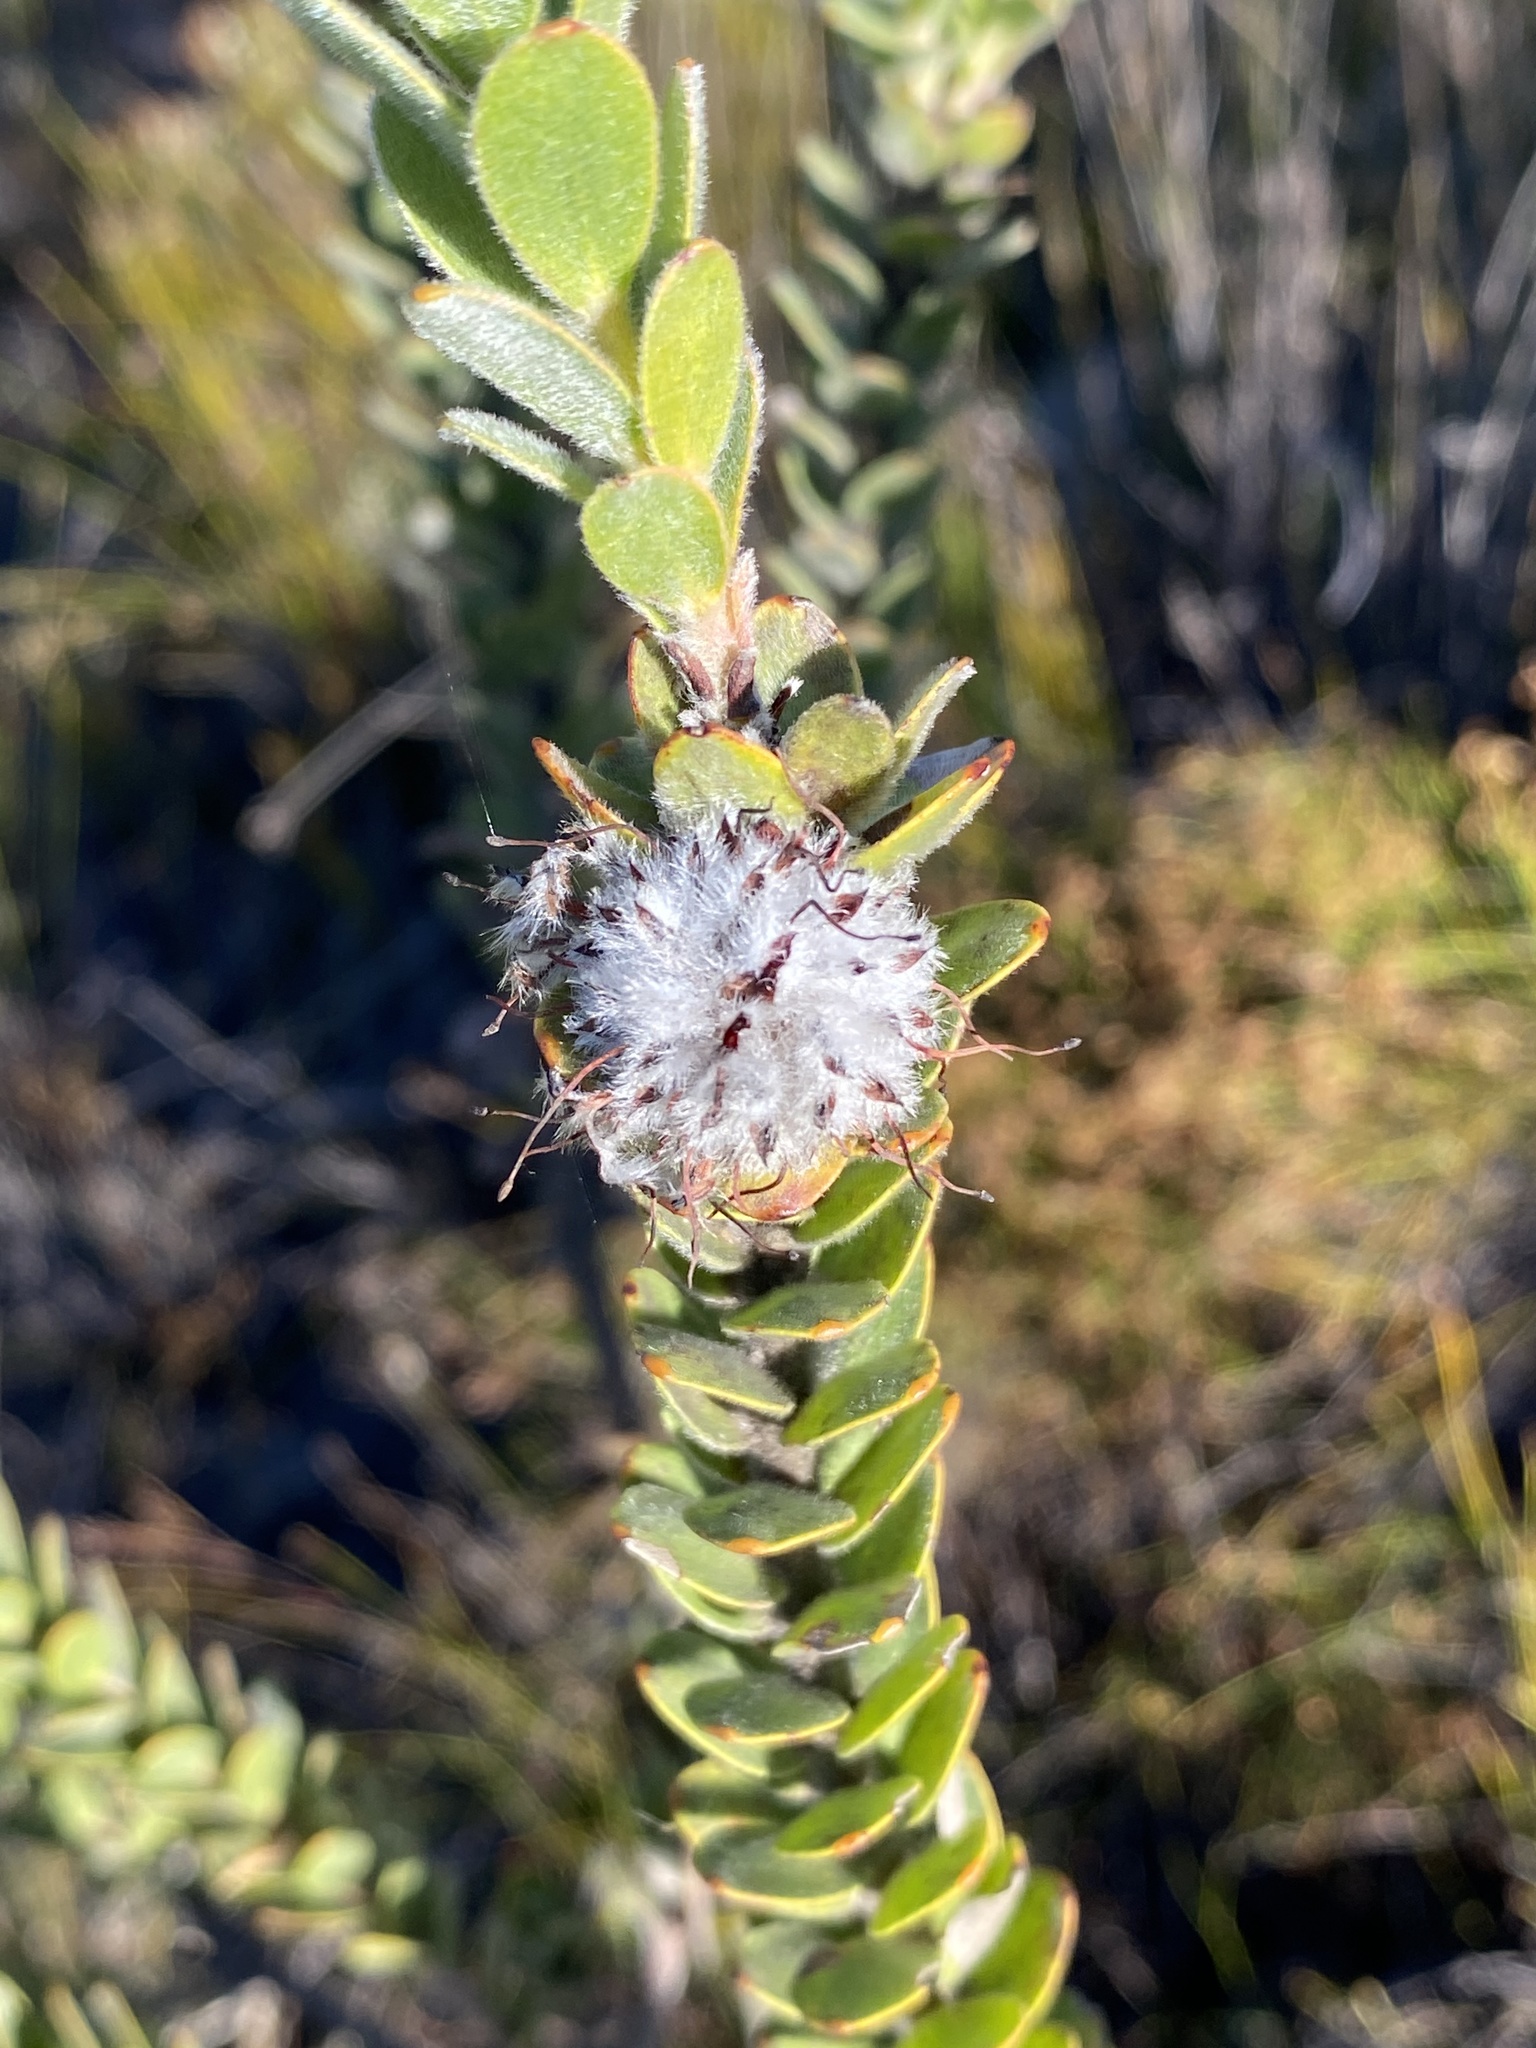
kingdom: Plantae
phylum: Tracheophyta
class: Magnoliopsida
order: Proteales
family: Proteaceae
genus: Leucospermum
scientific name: Leucospermum truncatulum
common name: Oval-leaf pincushion
